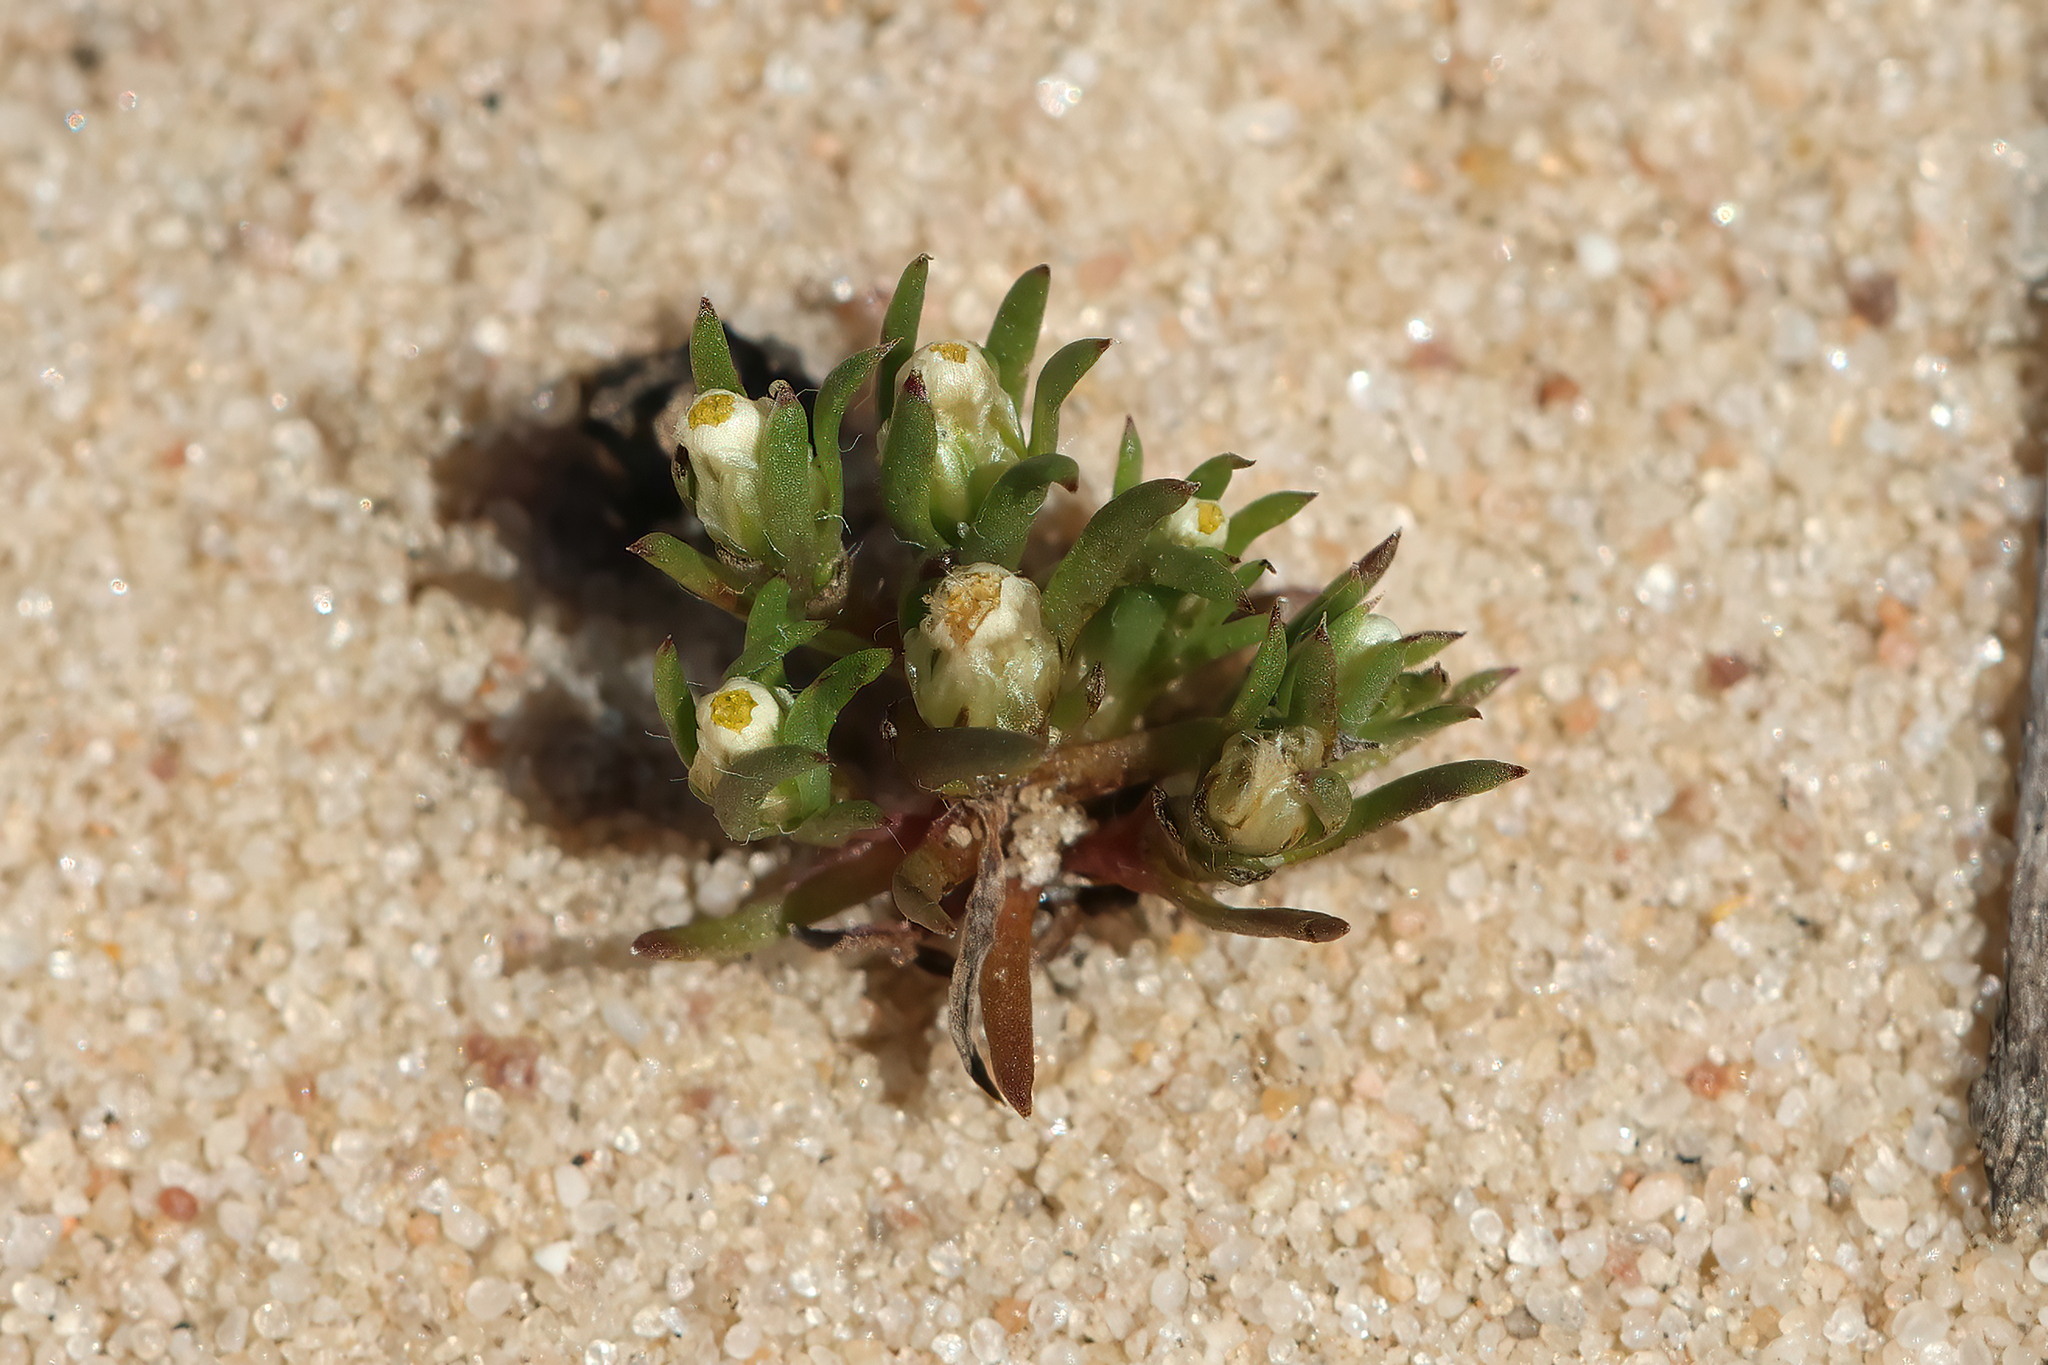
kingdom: Plantae
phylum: Tracheophyta
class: Magnoliopsida
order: Asterales
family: Asteraceae
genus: Hyalosperma
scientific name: Hyalosperma demissum
